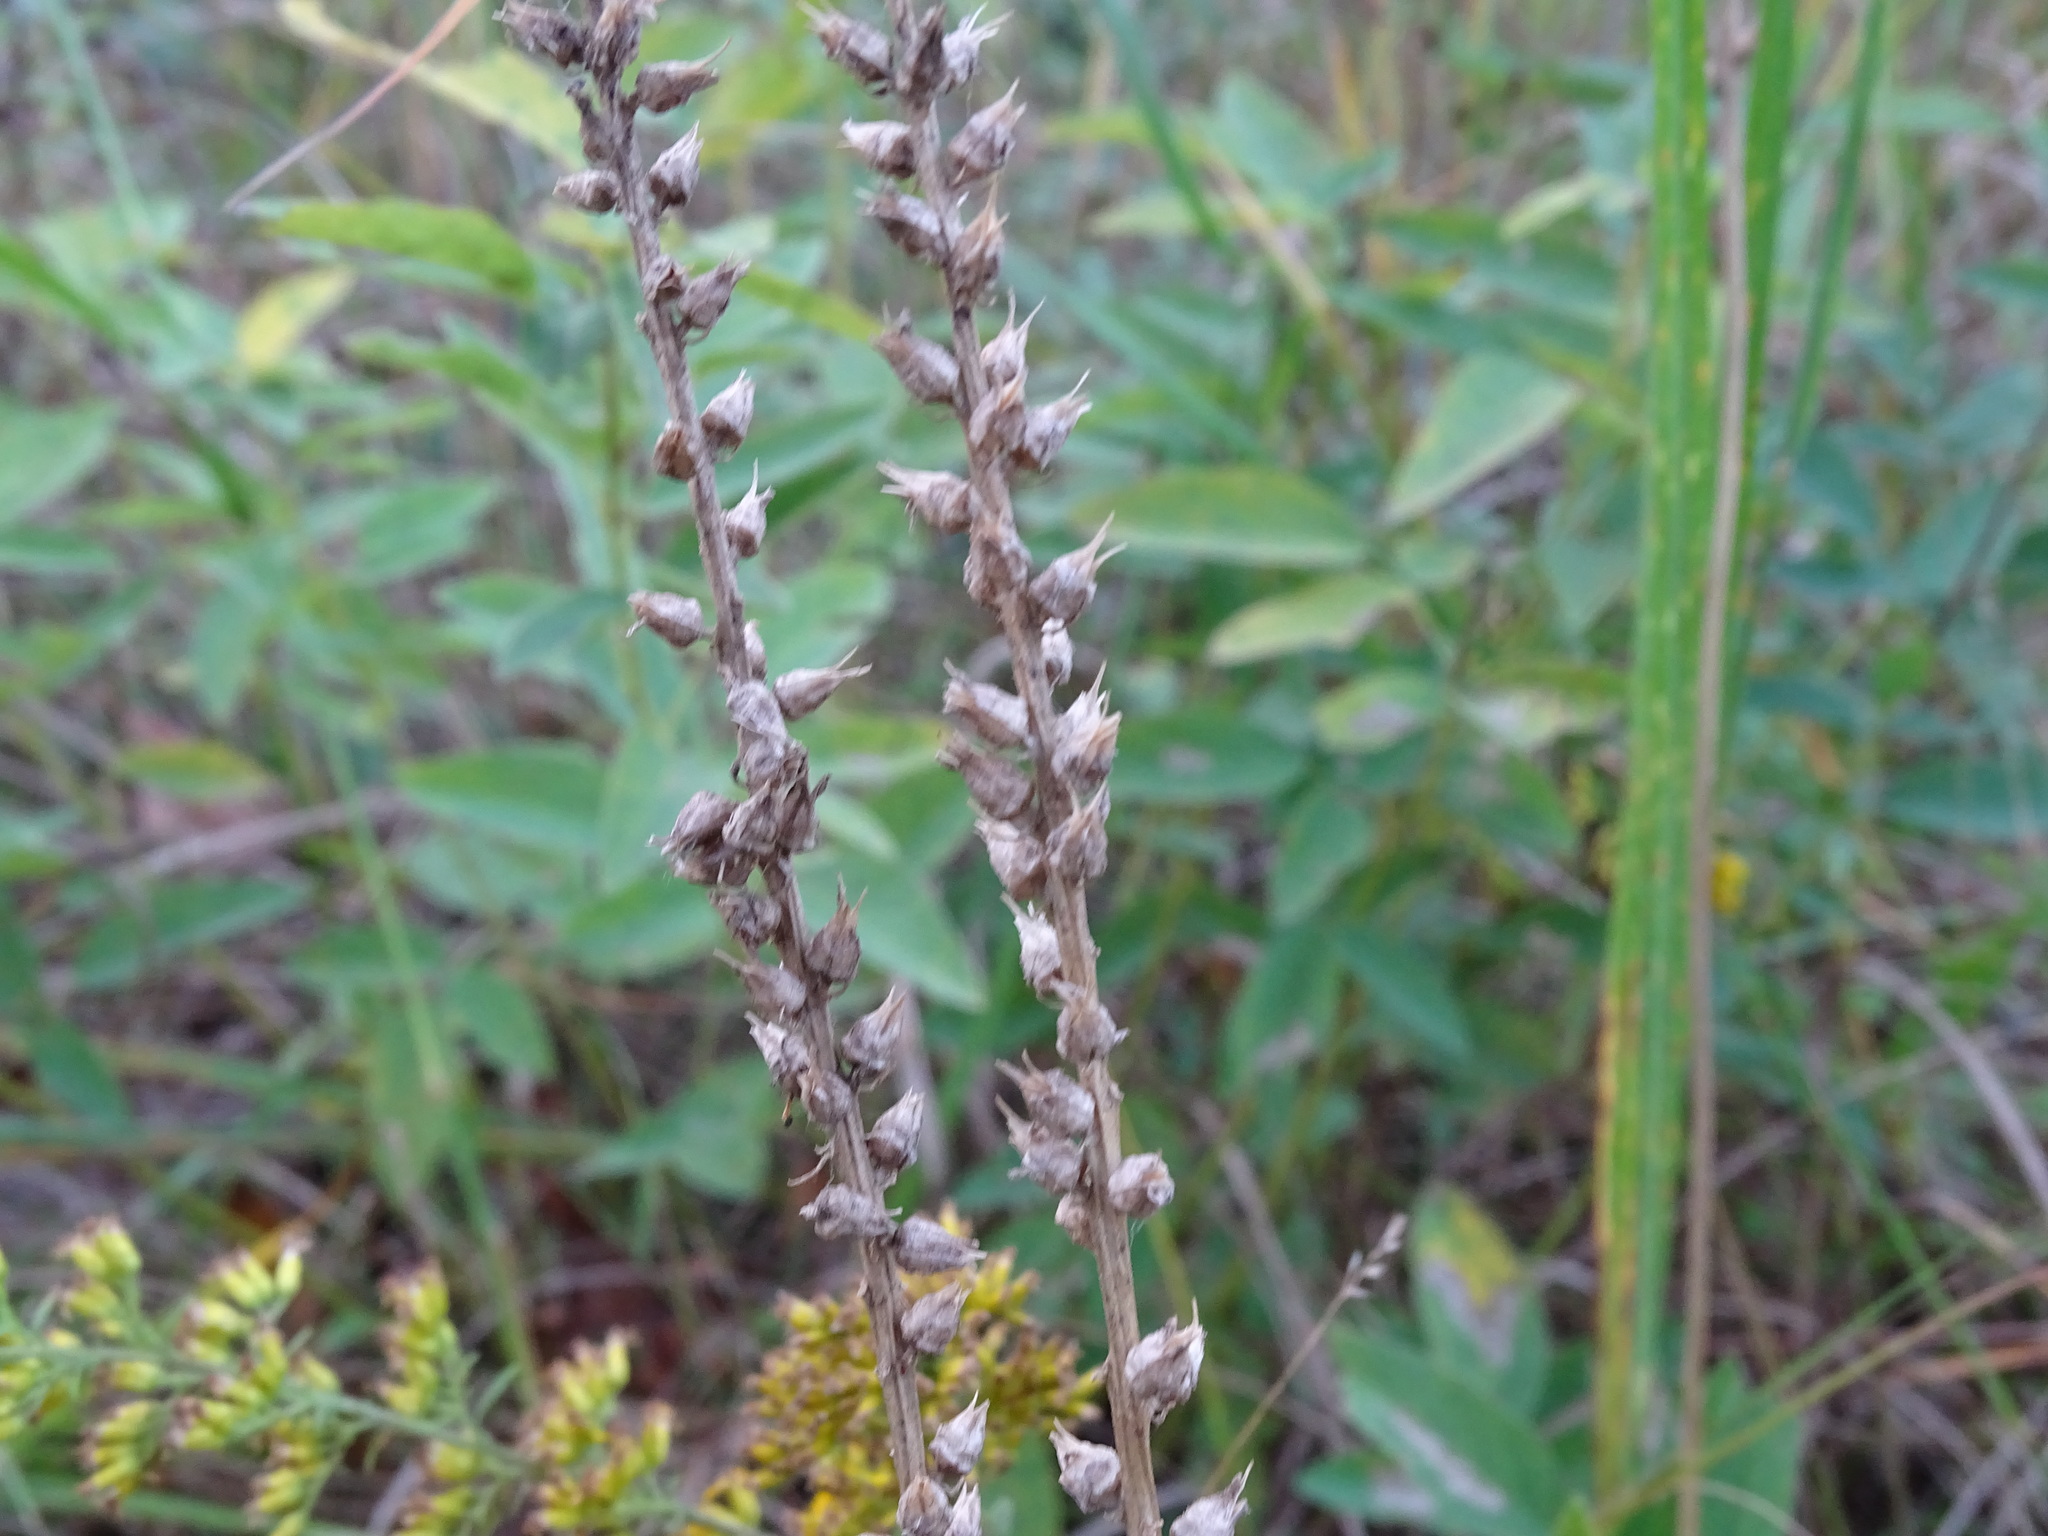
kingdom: Plantae
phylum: Tracheophyta
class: Liliopsida
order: Dioscoreales
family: Nartheciaceae
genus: Aletris
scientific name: Aletris farinosa
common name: Colicroot
